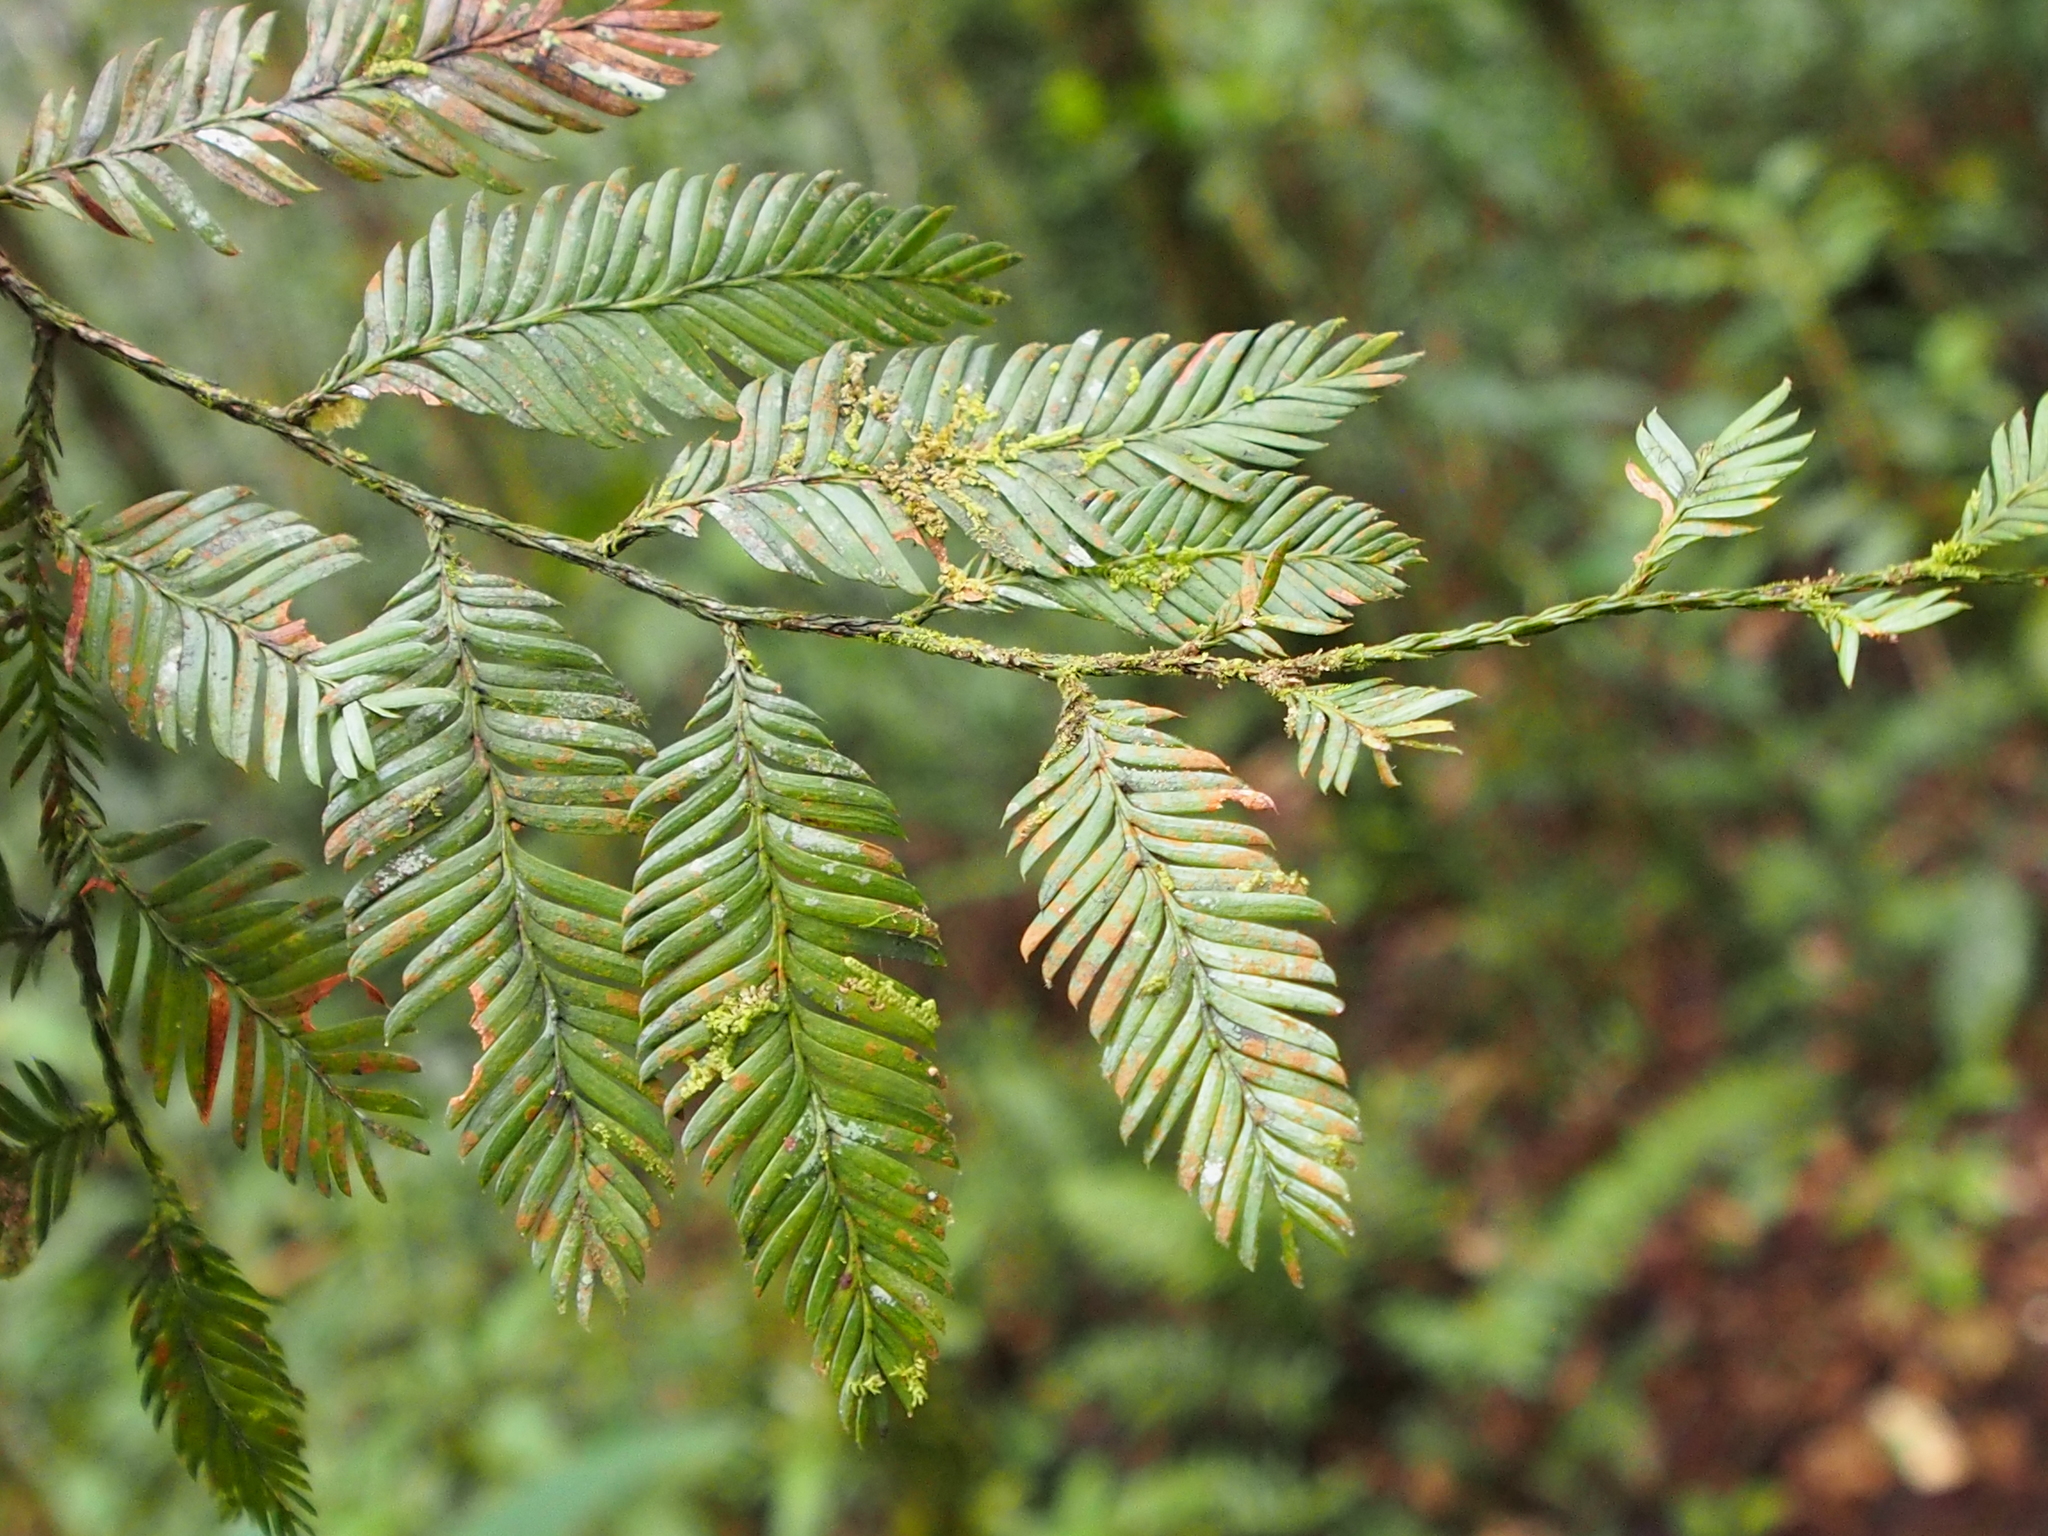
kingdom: Plantae
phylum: Tracheophyta
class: Pinopsida
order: Pinales
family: Podocarpaceae
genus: Dacrycarpus
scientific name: Dacrycarpus imbricatus
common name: Pine
